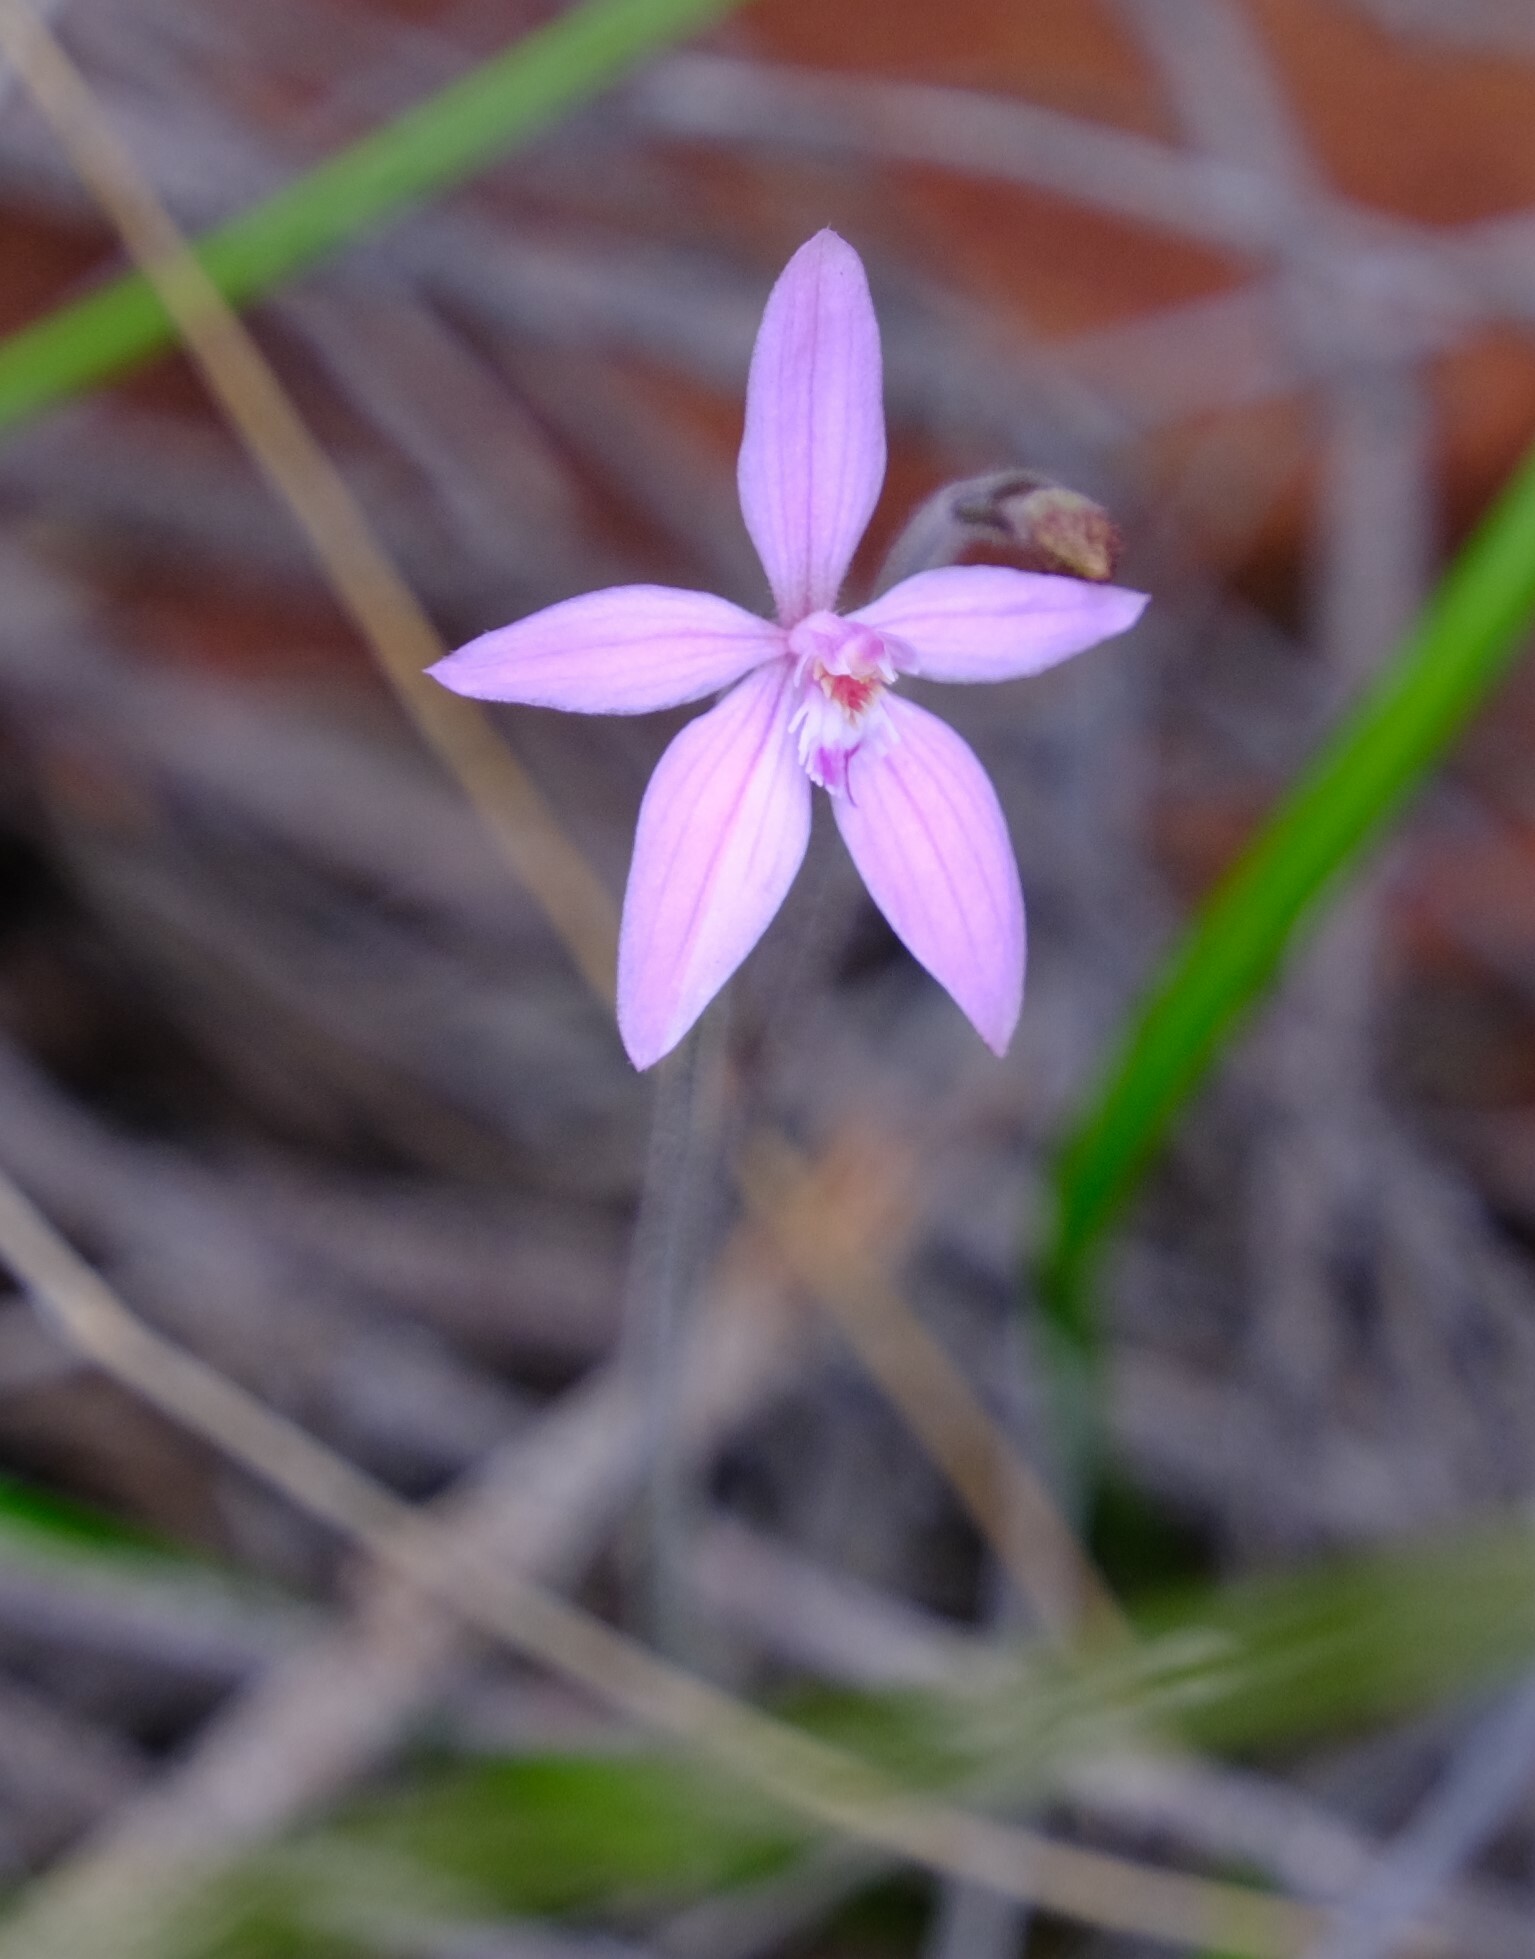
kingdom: Plantae
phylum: Tracheophyta
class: Liliopsida
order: Asparagales
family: Orchidaceae
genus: Caladenia
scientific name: Caladenia reptans
